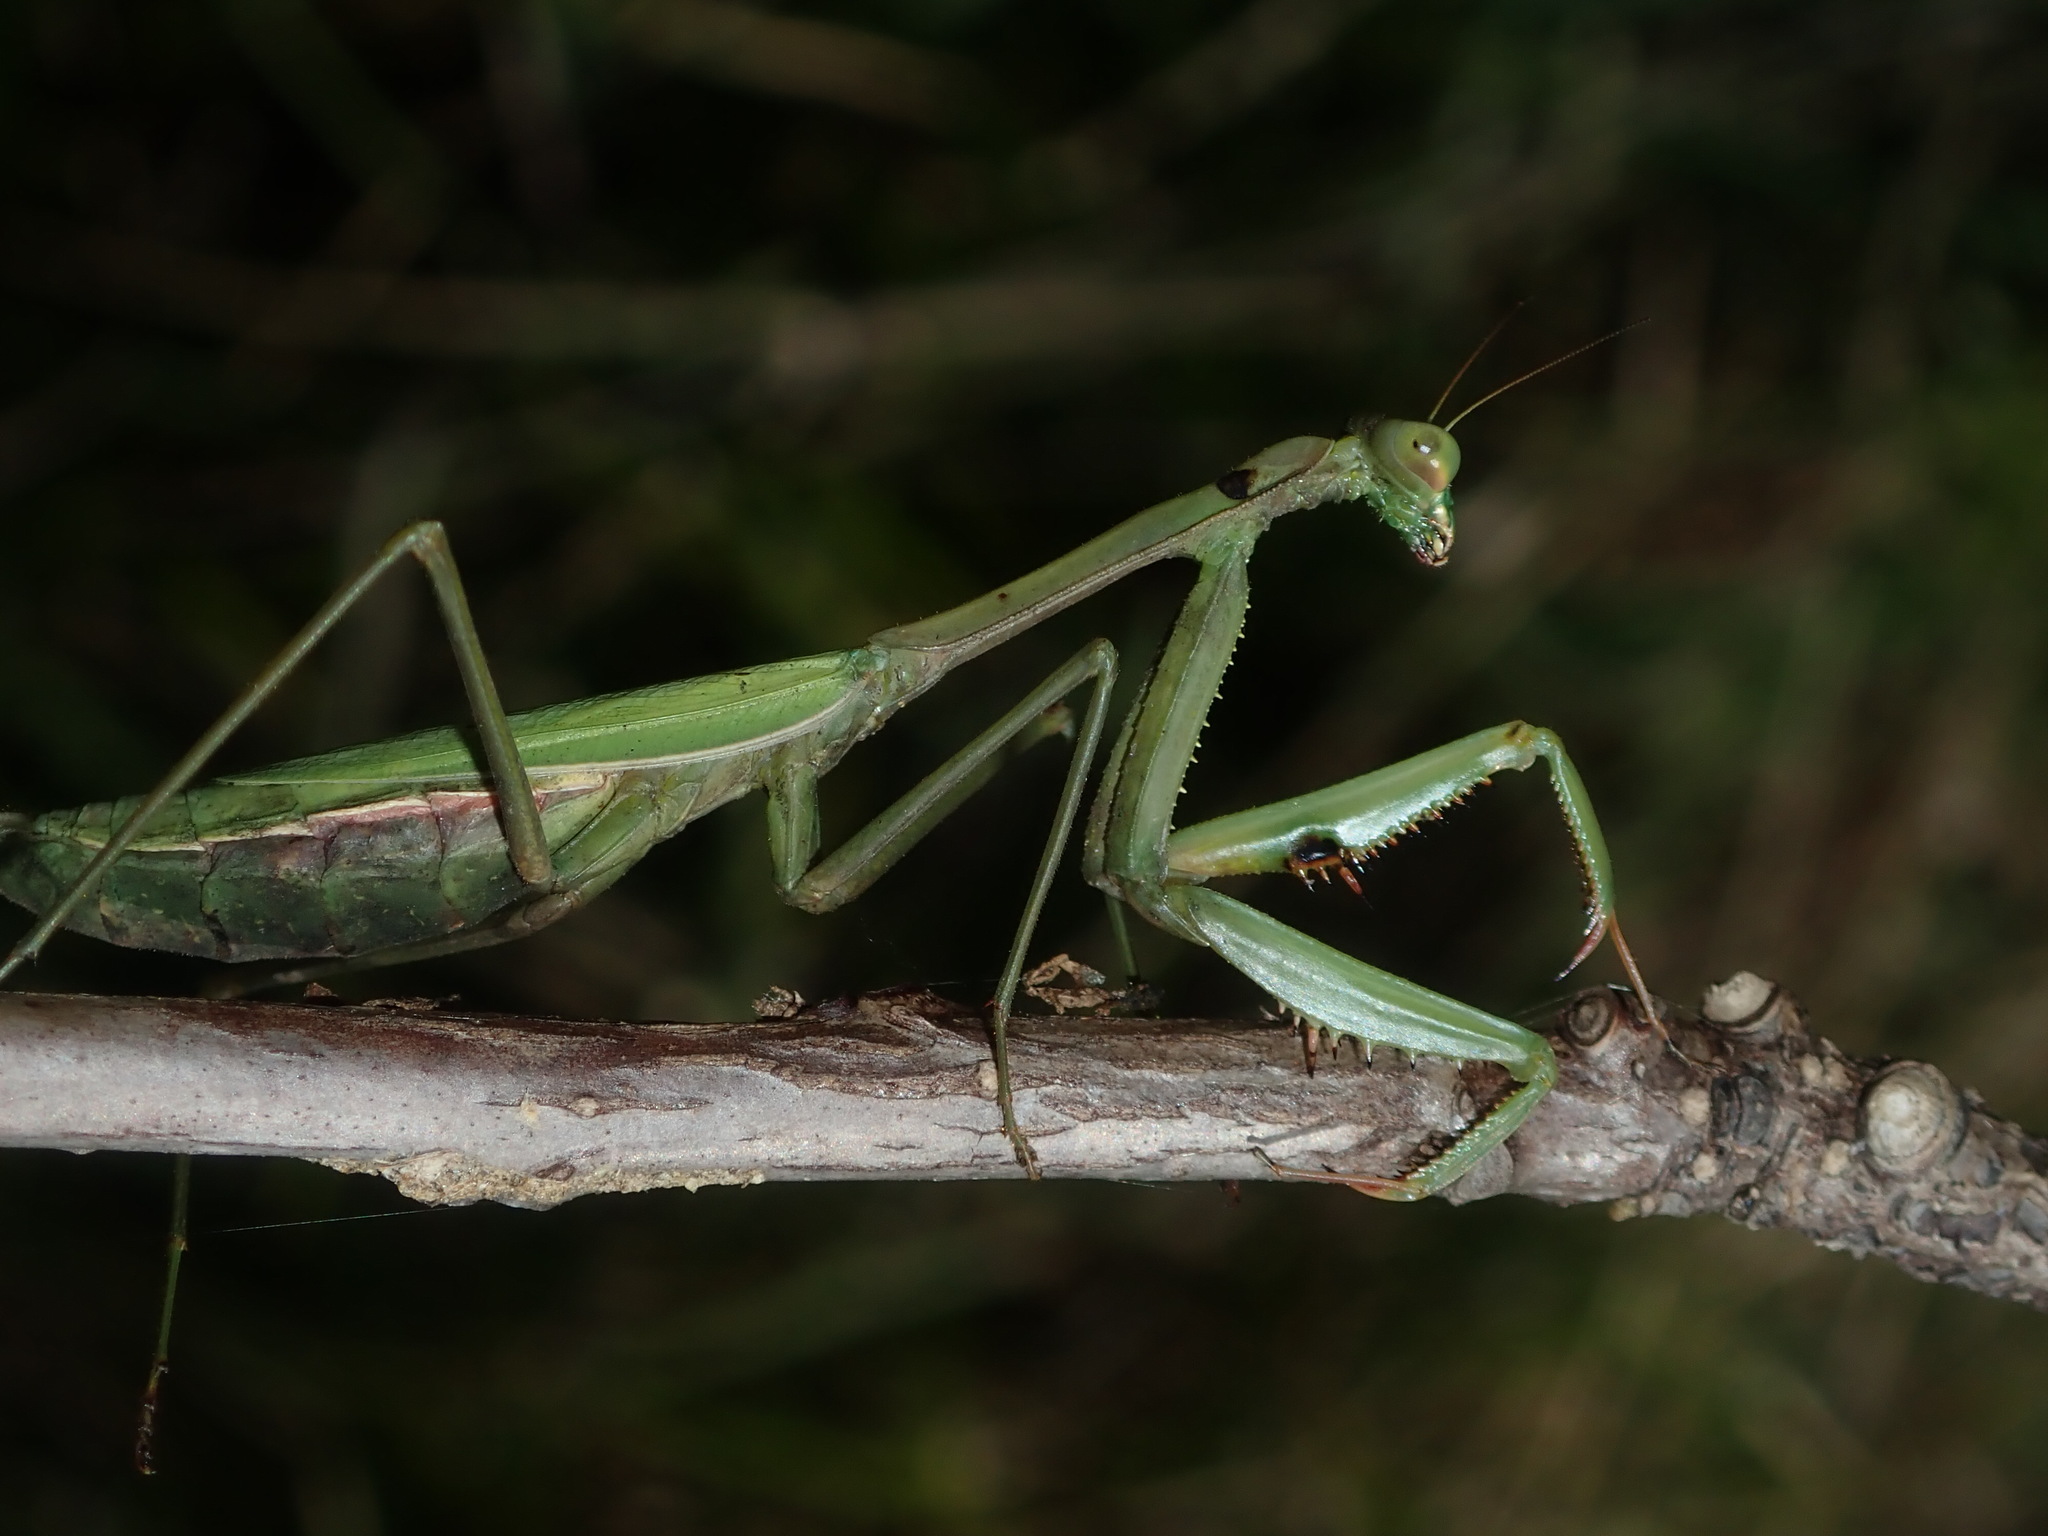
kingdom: Animalia
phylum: Arthropoda
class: Insecta
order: Mantodea
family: Mantidae
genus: Pseudomantis
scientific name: Pseudomantis albofimbriata
